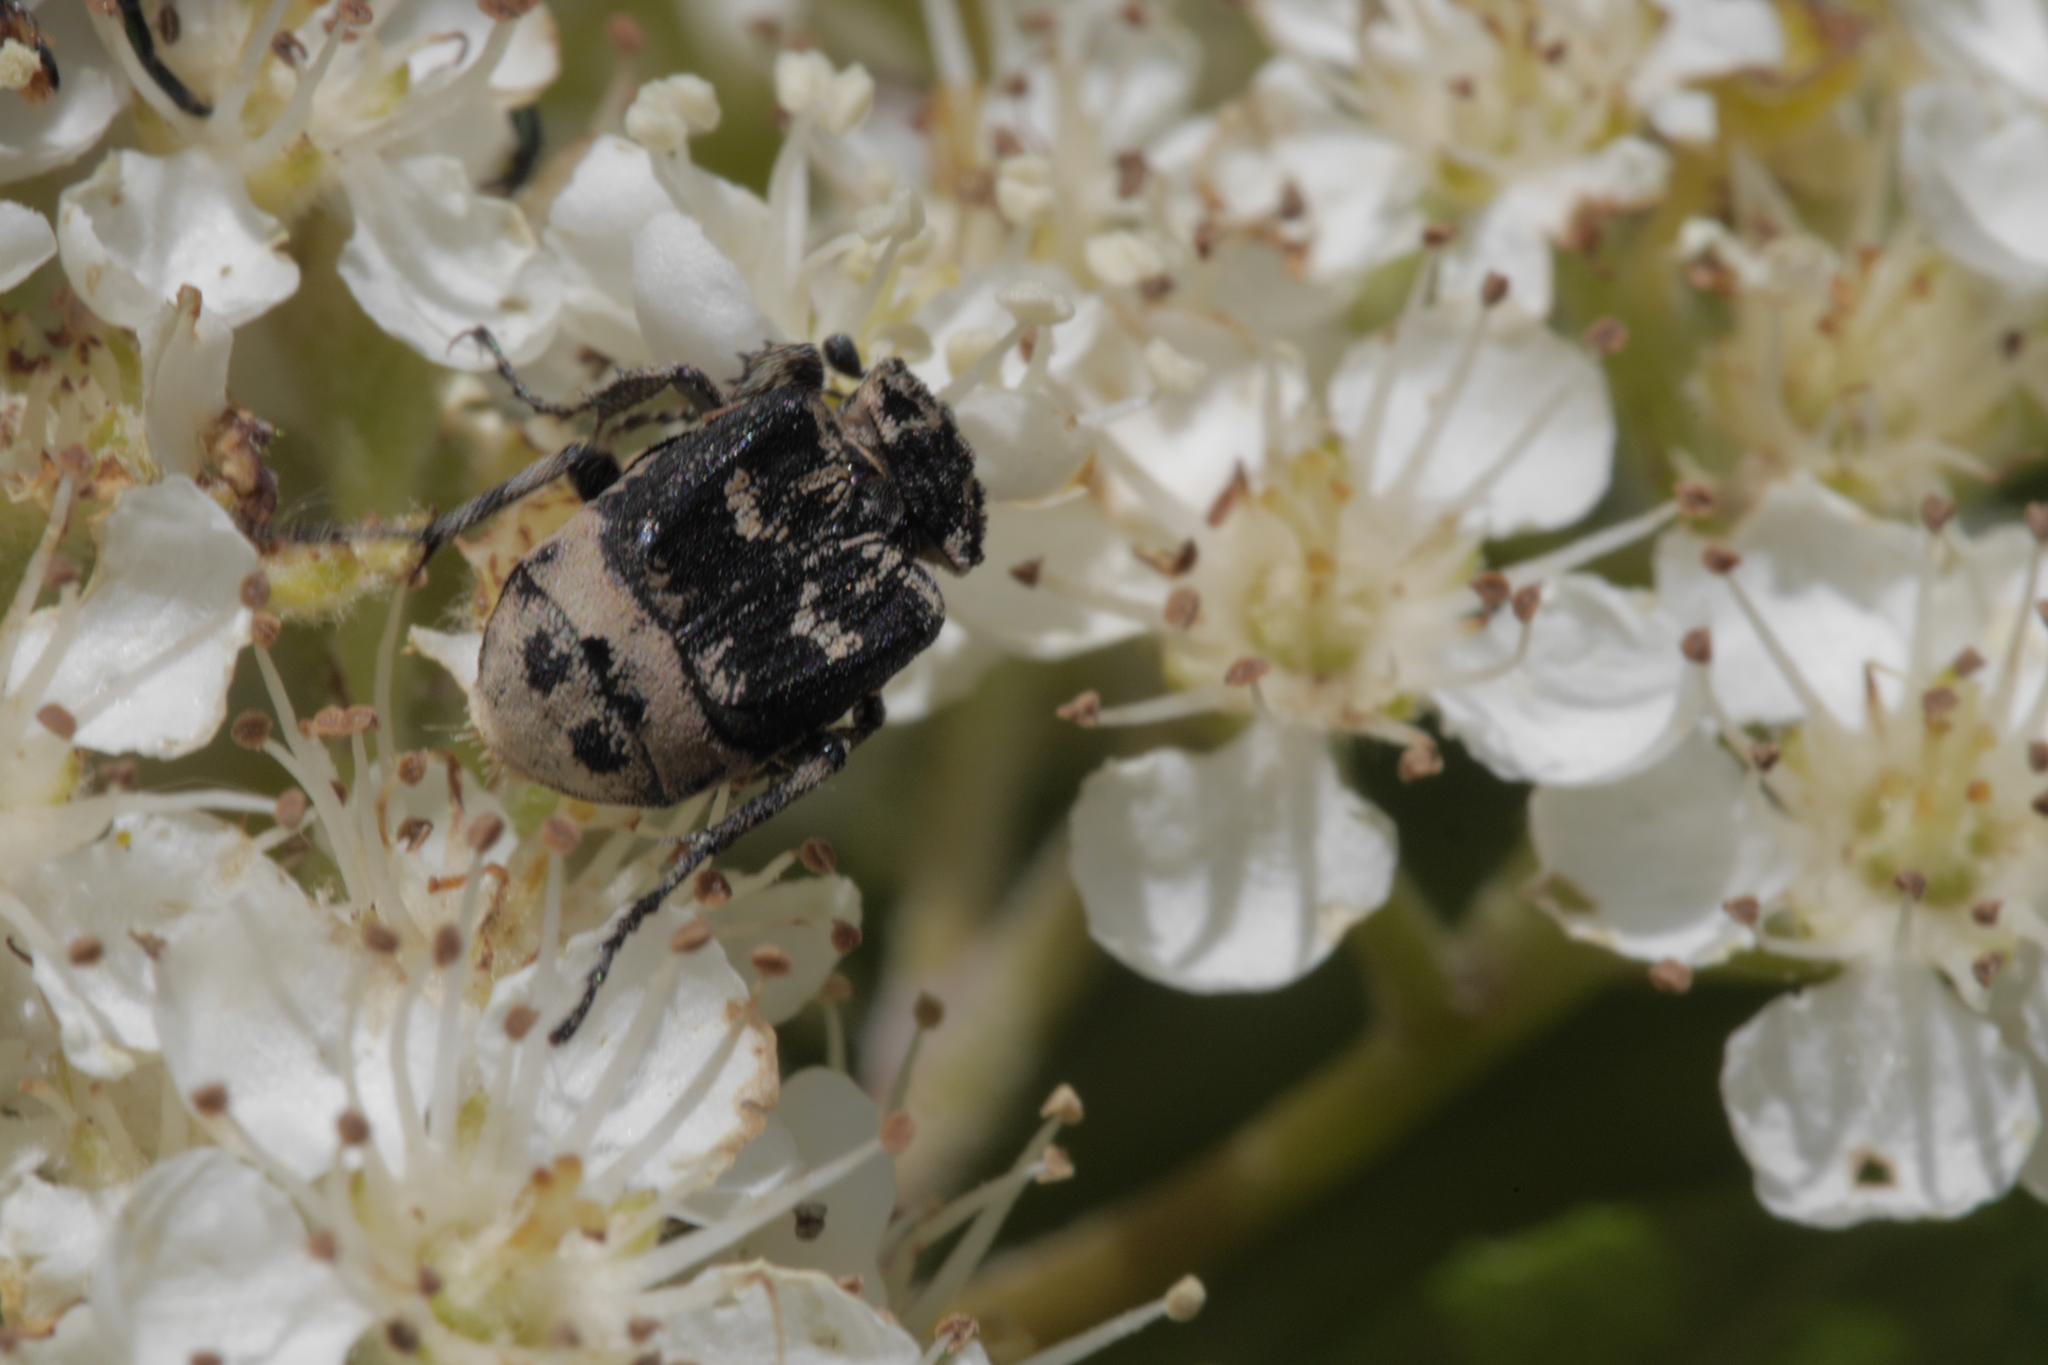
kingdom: Animalia
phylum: Arthropoda
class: Insecta
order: Coleoptera
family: Scarabaeidae
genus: Valgus
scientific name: Valgus hemipterus
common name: Bug flower chafer
